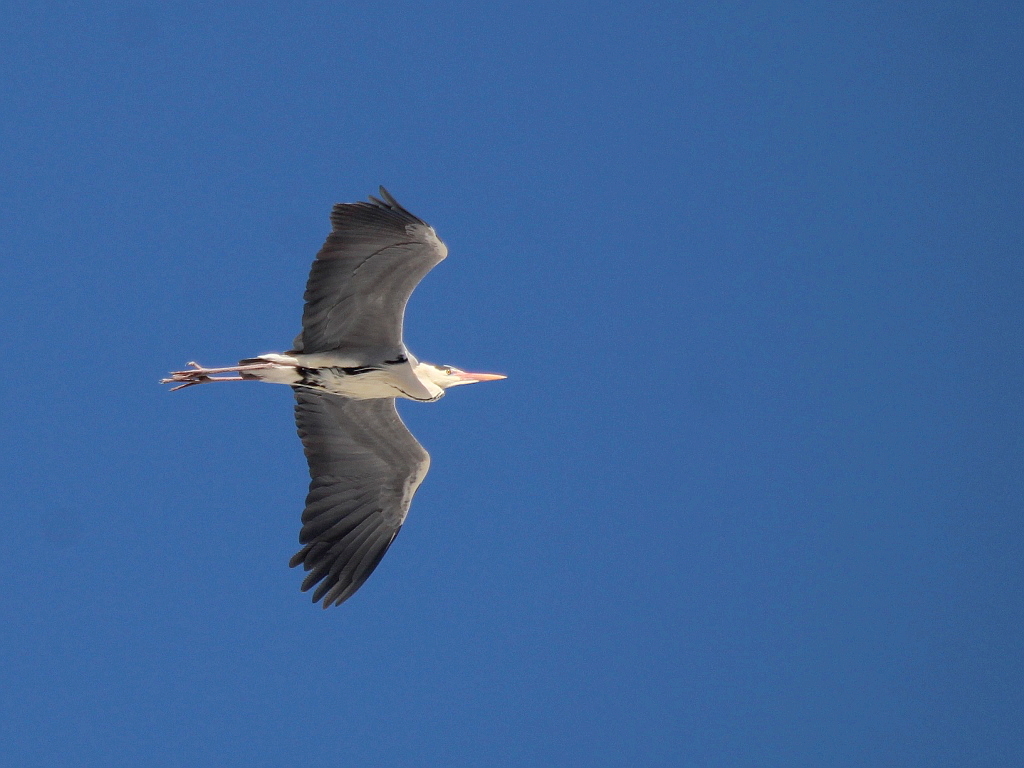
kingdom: Animalia
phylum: Chordata
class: Aves
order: Pelecaniformes
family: Ardeidae
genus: Ardea
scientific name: Ardea cinerea
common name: Grey heron
